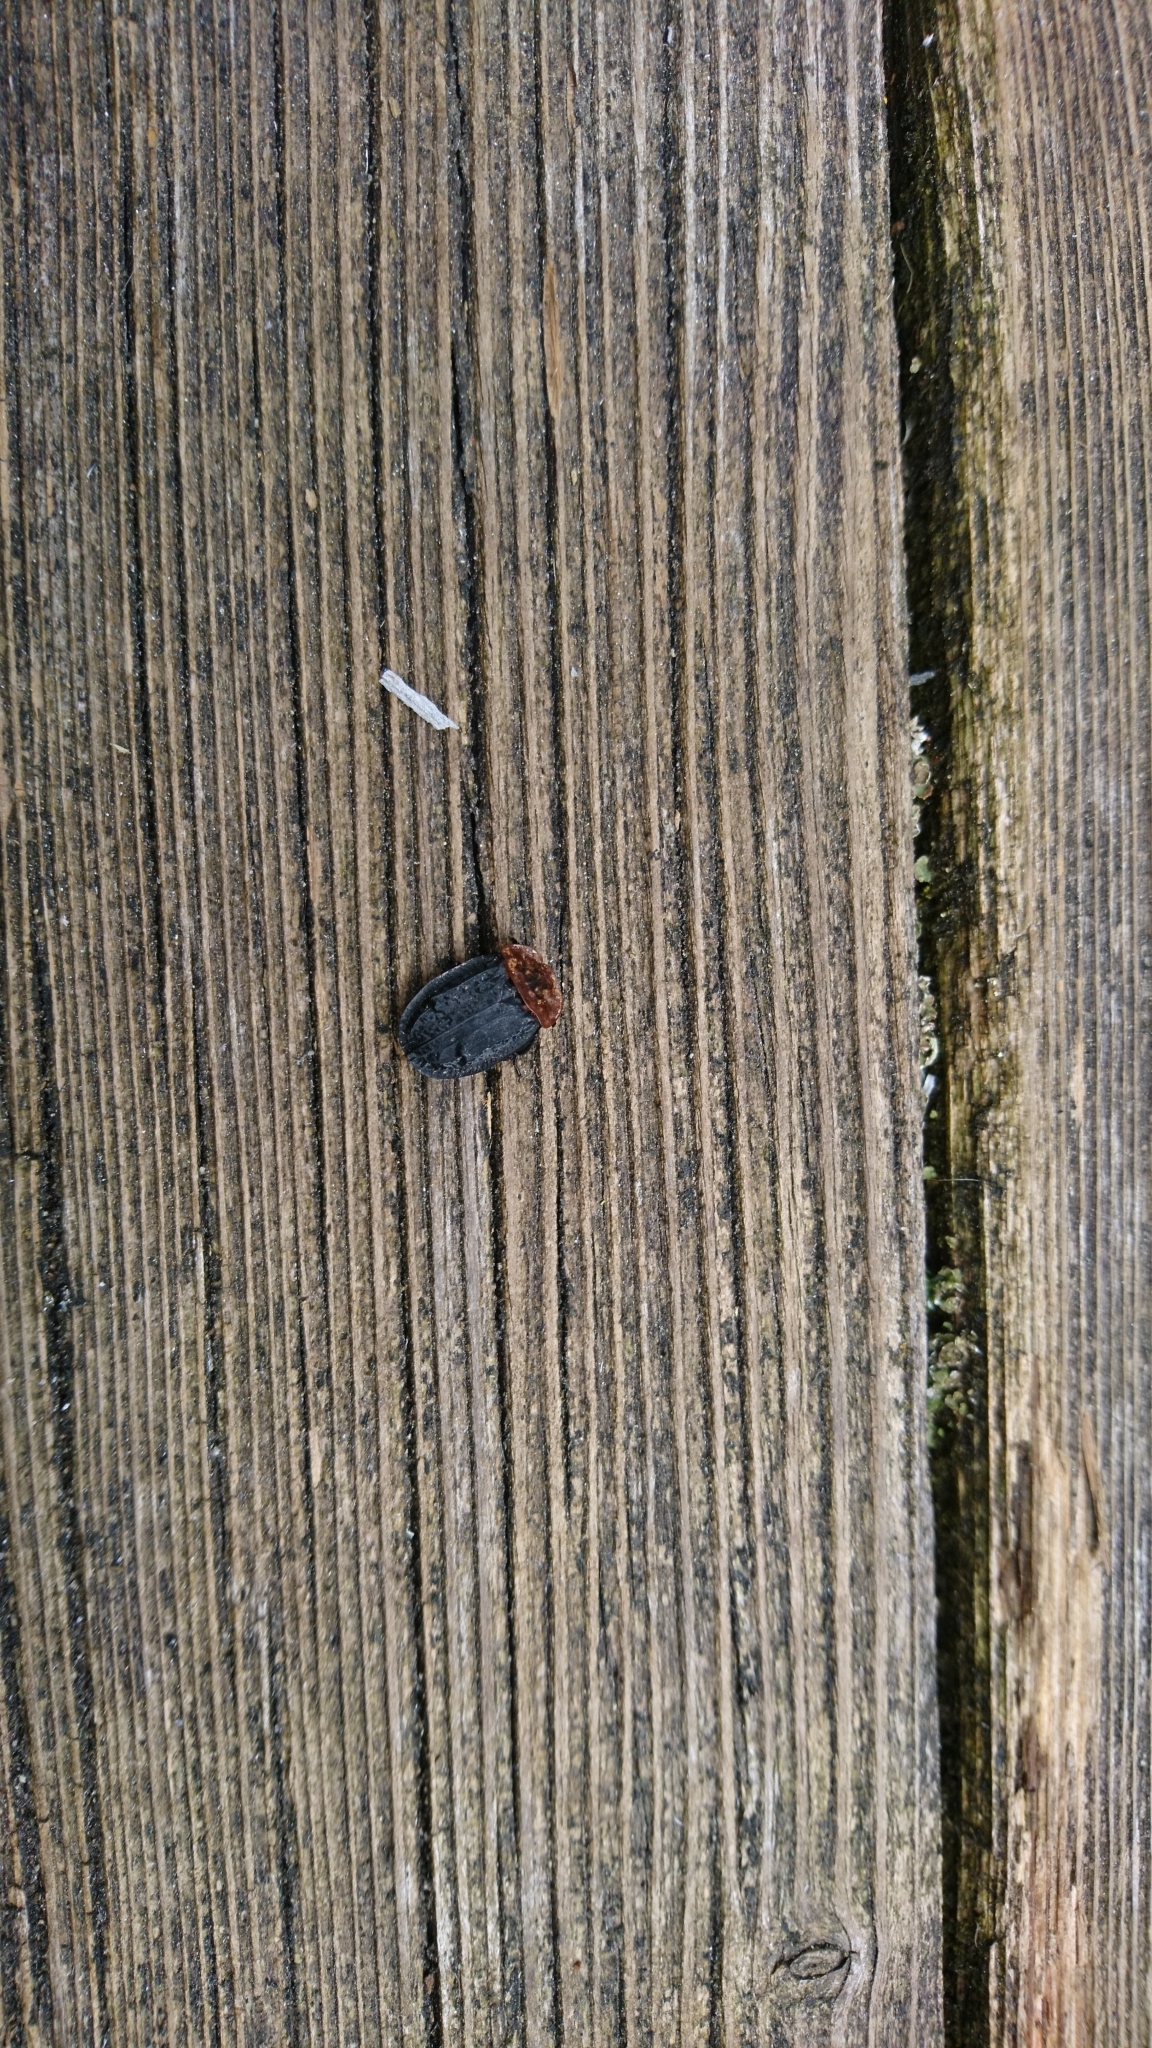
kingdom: Animalia
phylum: Arthropoda
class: Insecta
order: Coleoptera
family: Staphylinidae
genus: Oiceoptoma
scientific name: Oiceoptoma thoracicum
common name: Red-breasted carrion beetle
